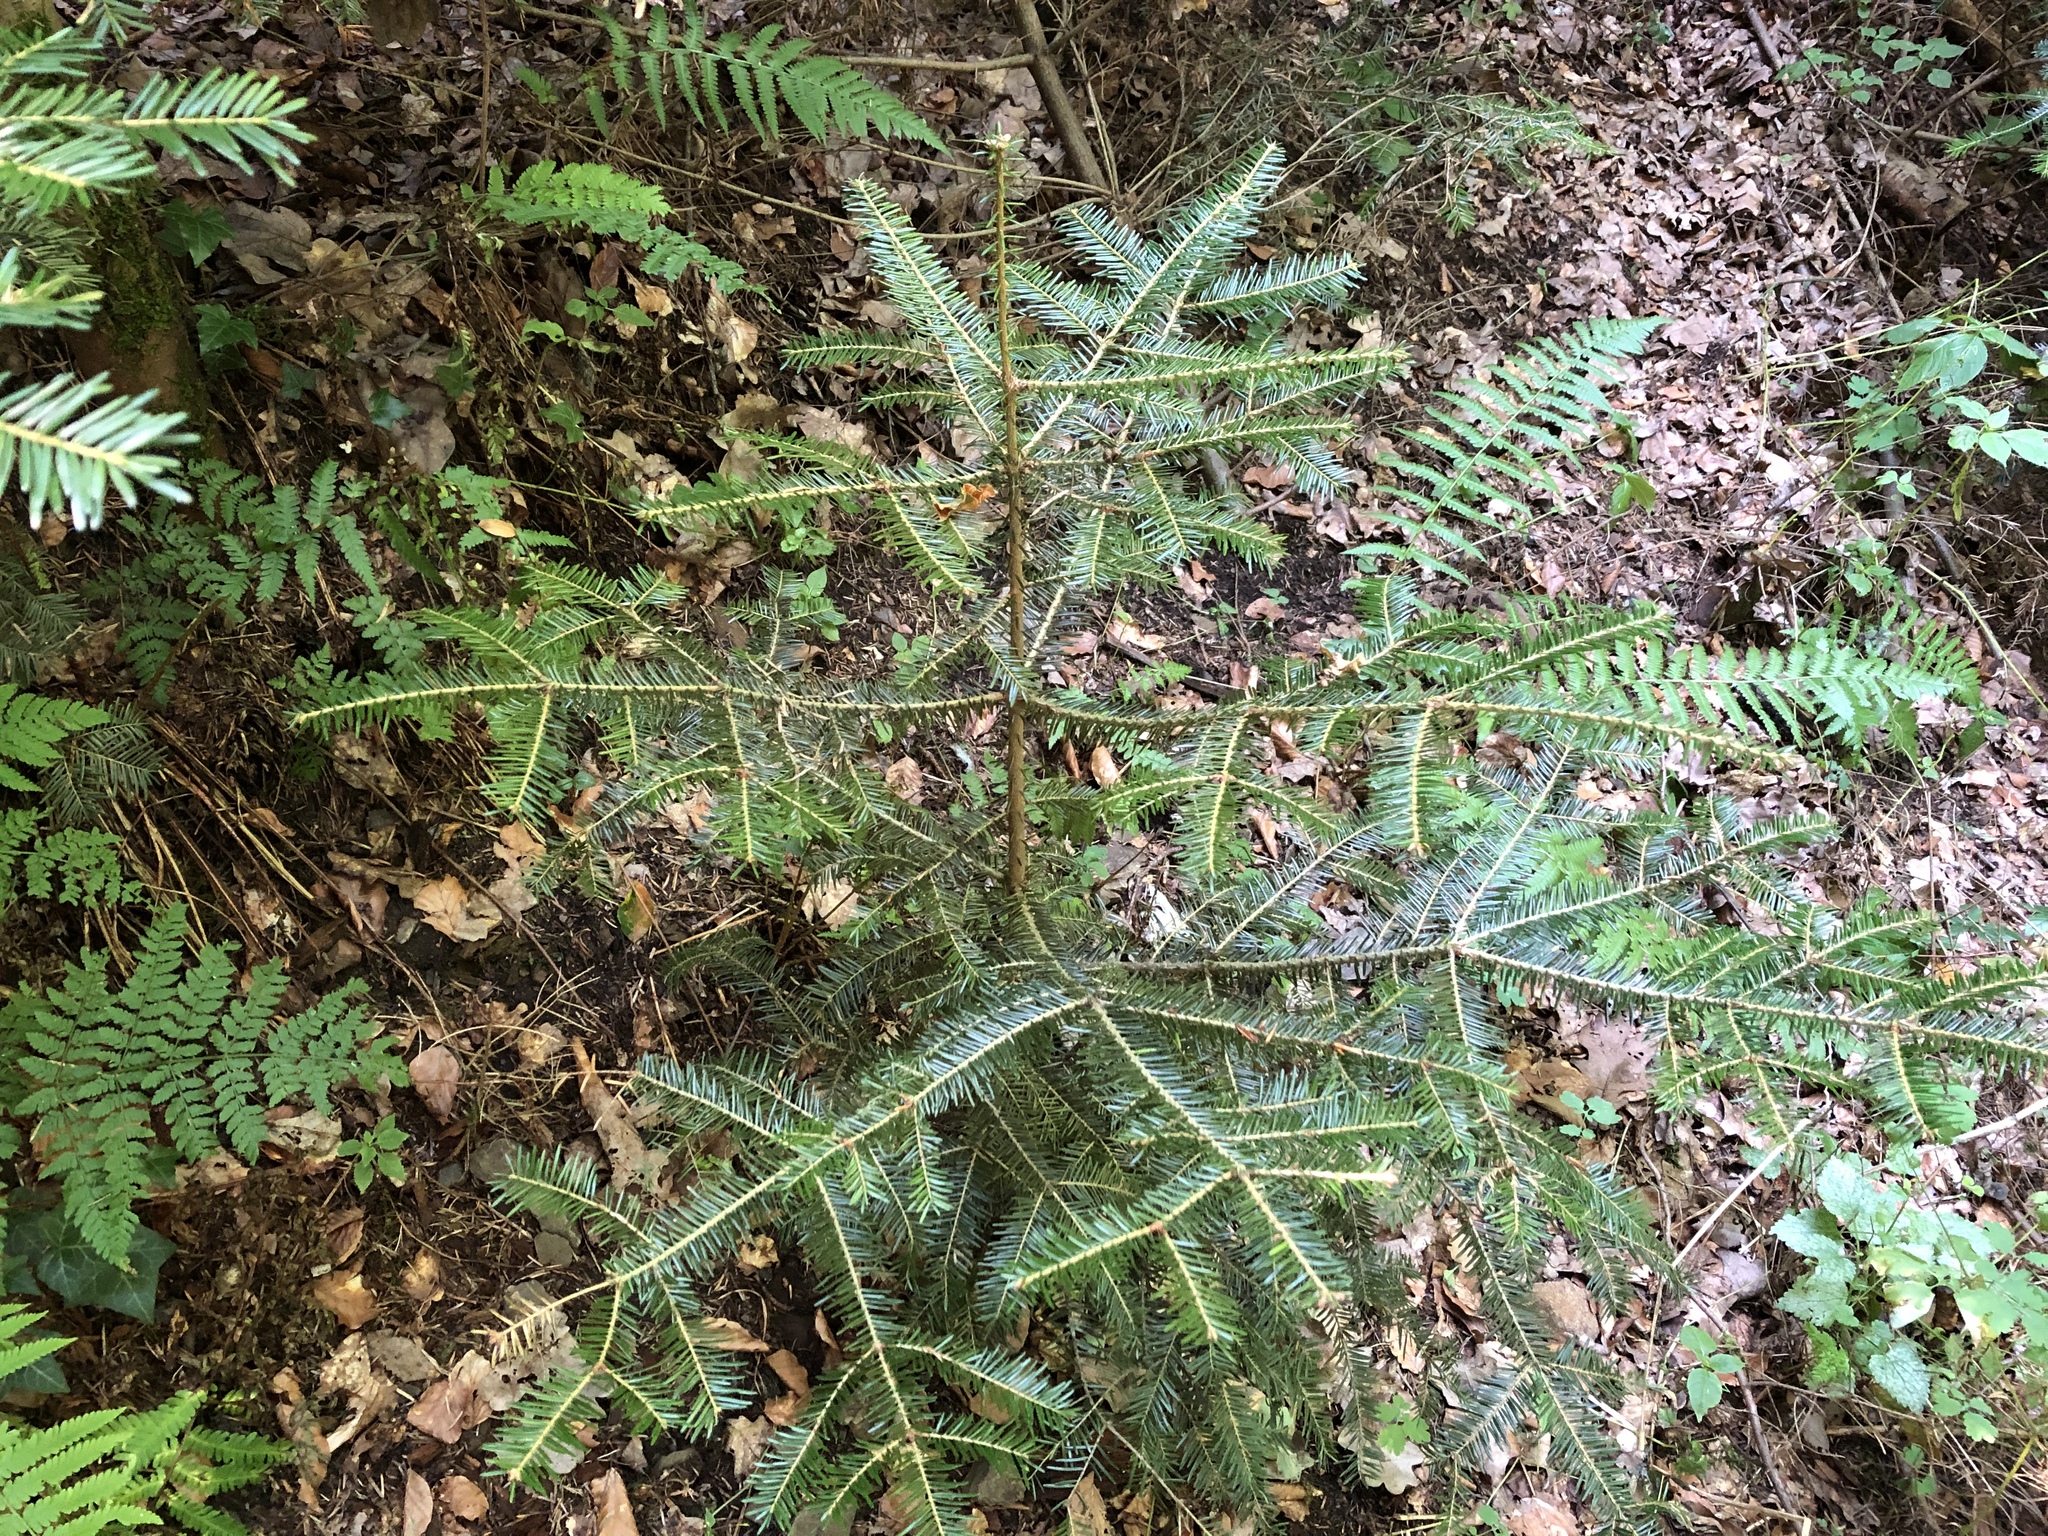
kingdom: Plantae
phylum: Tracheophyta
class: Pinopsida
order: Pinales
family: Pinaceae
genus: Abies
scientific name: Abies alba
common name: Silver fir
